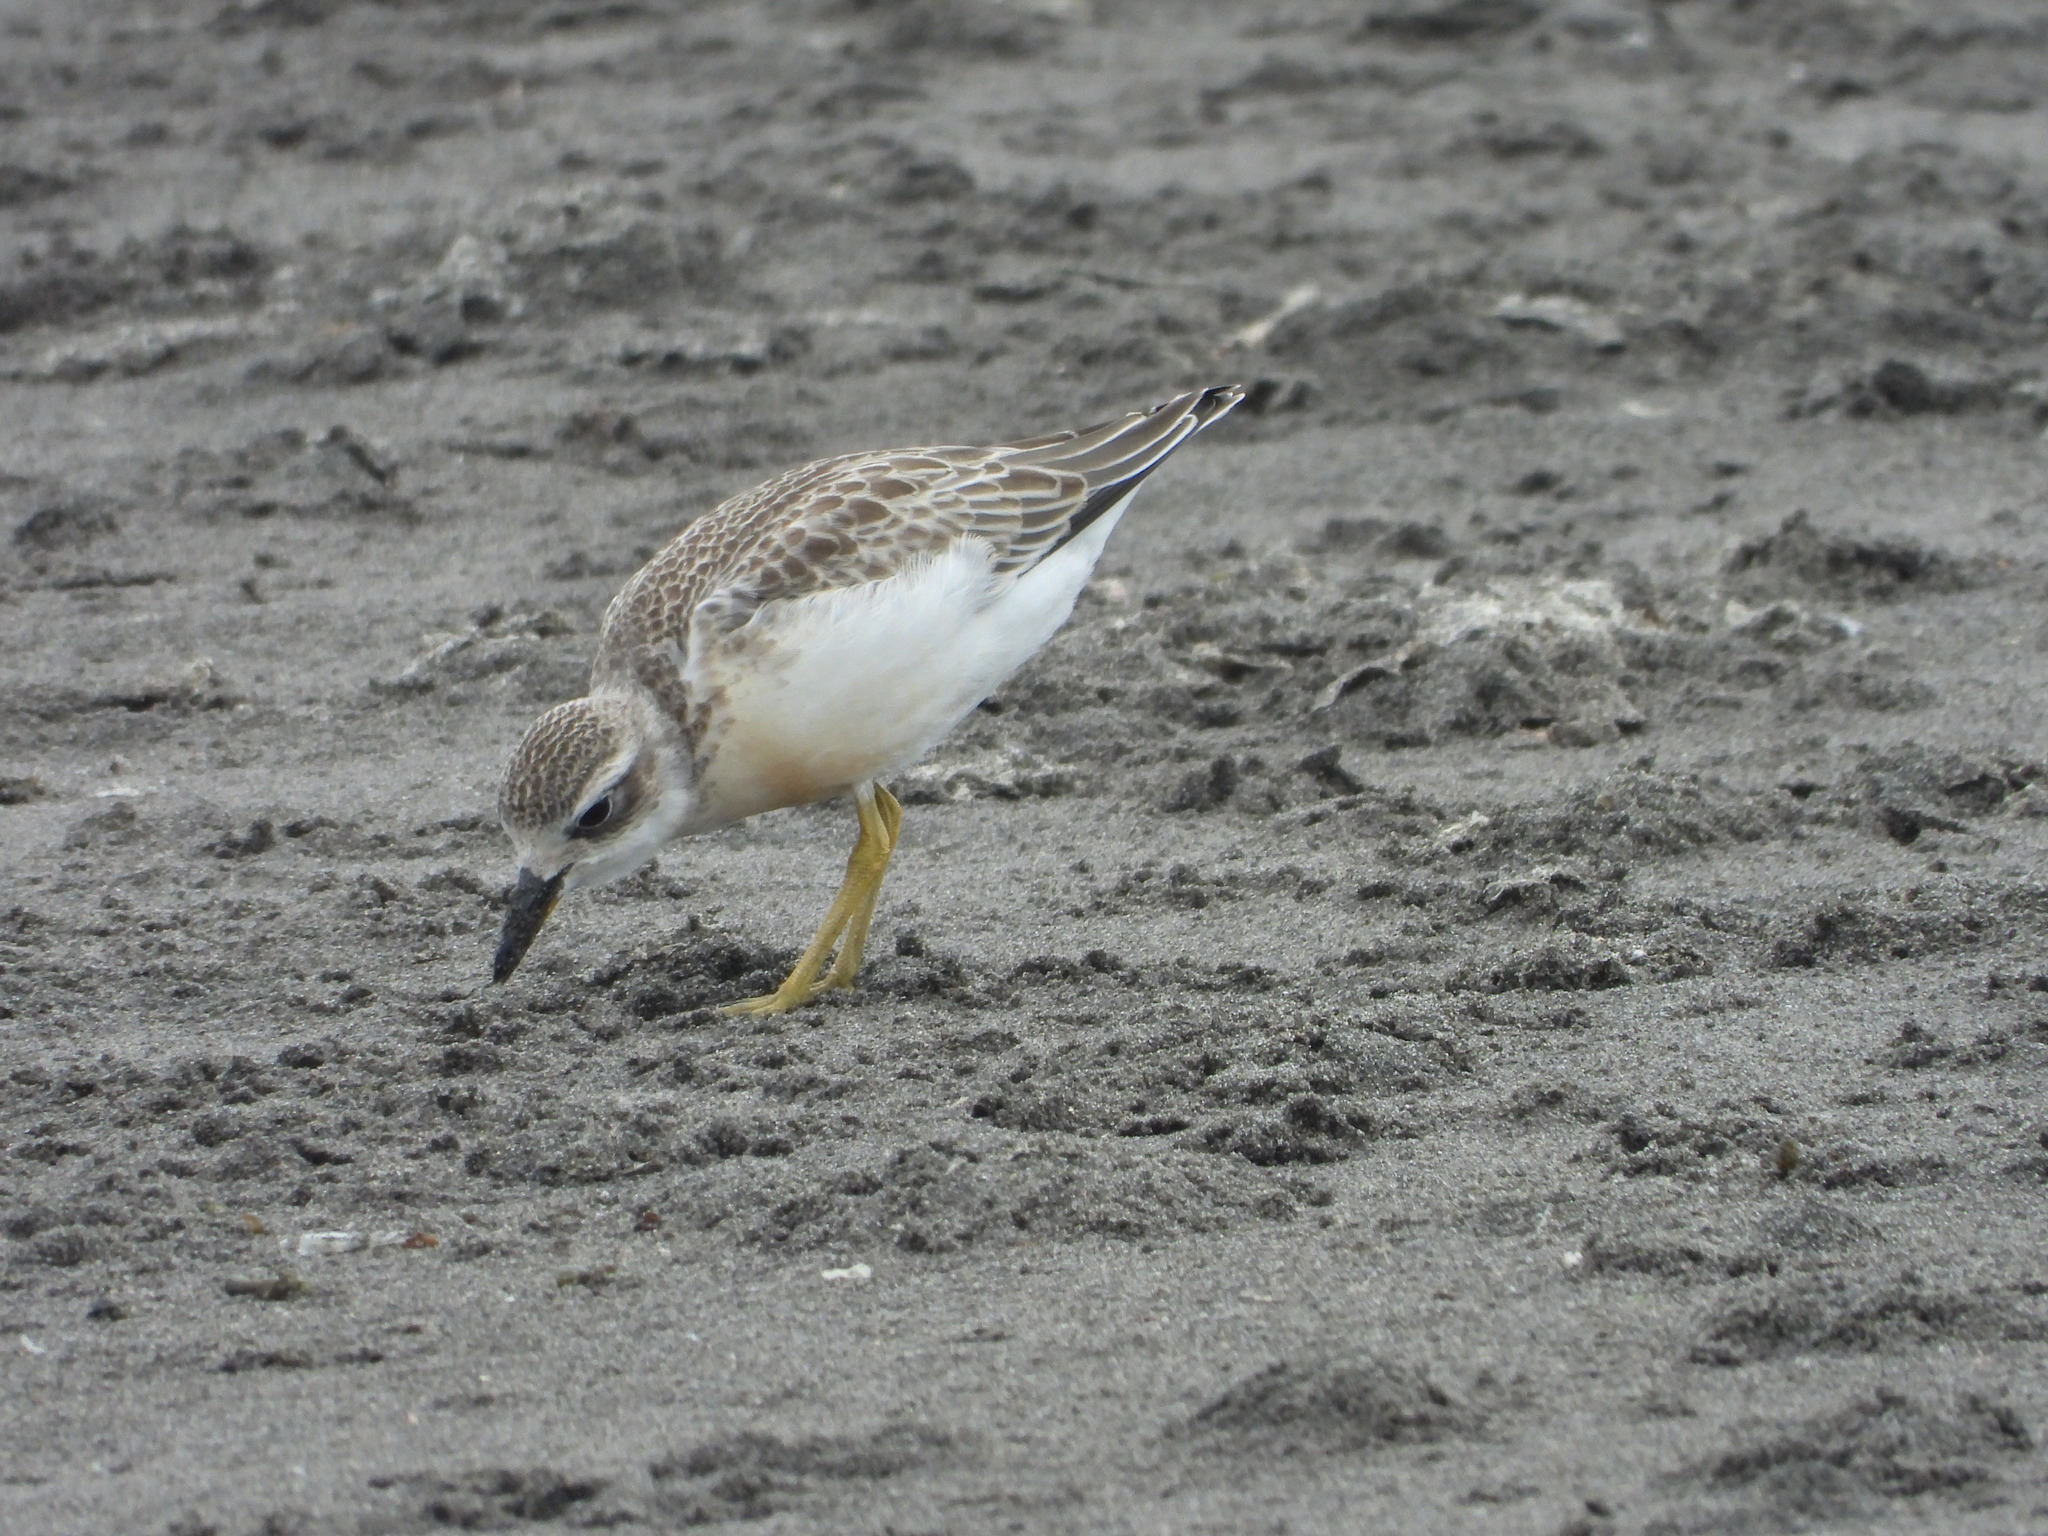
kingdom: Animalia
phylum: Chordata
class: Aves
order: Charadriiformes
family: Charadriidae
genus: Anarhynchus
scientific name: Anarhynchus
